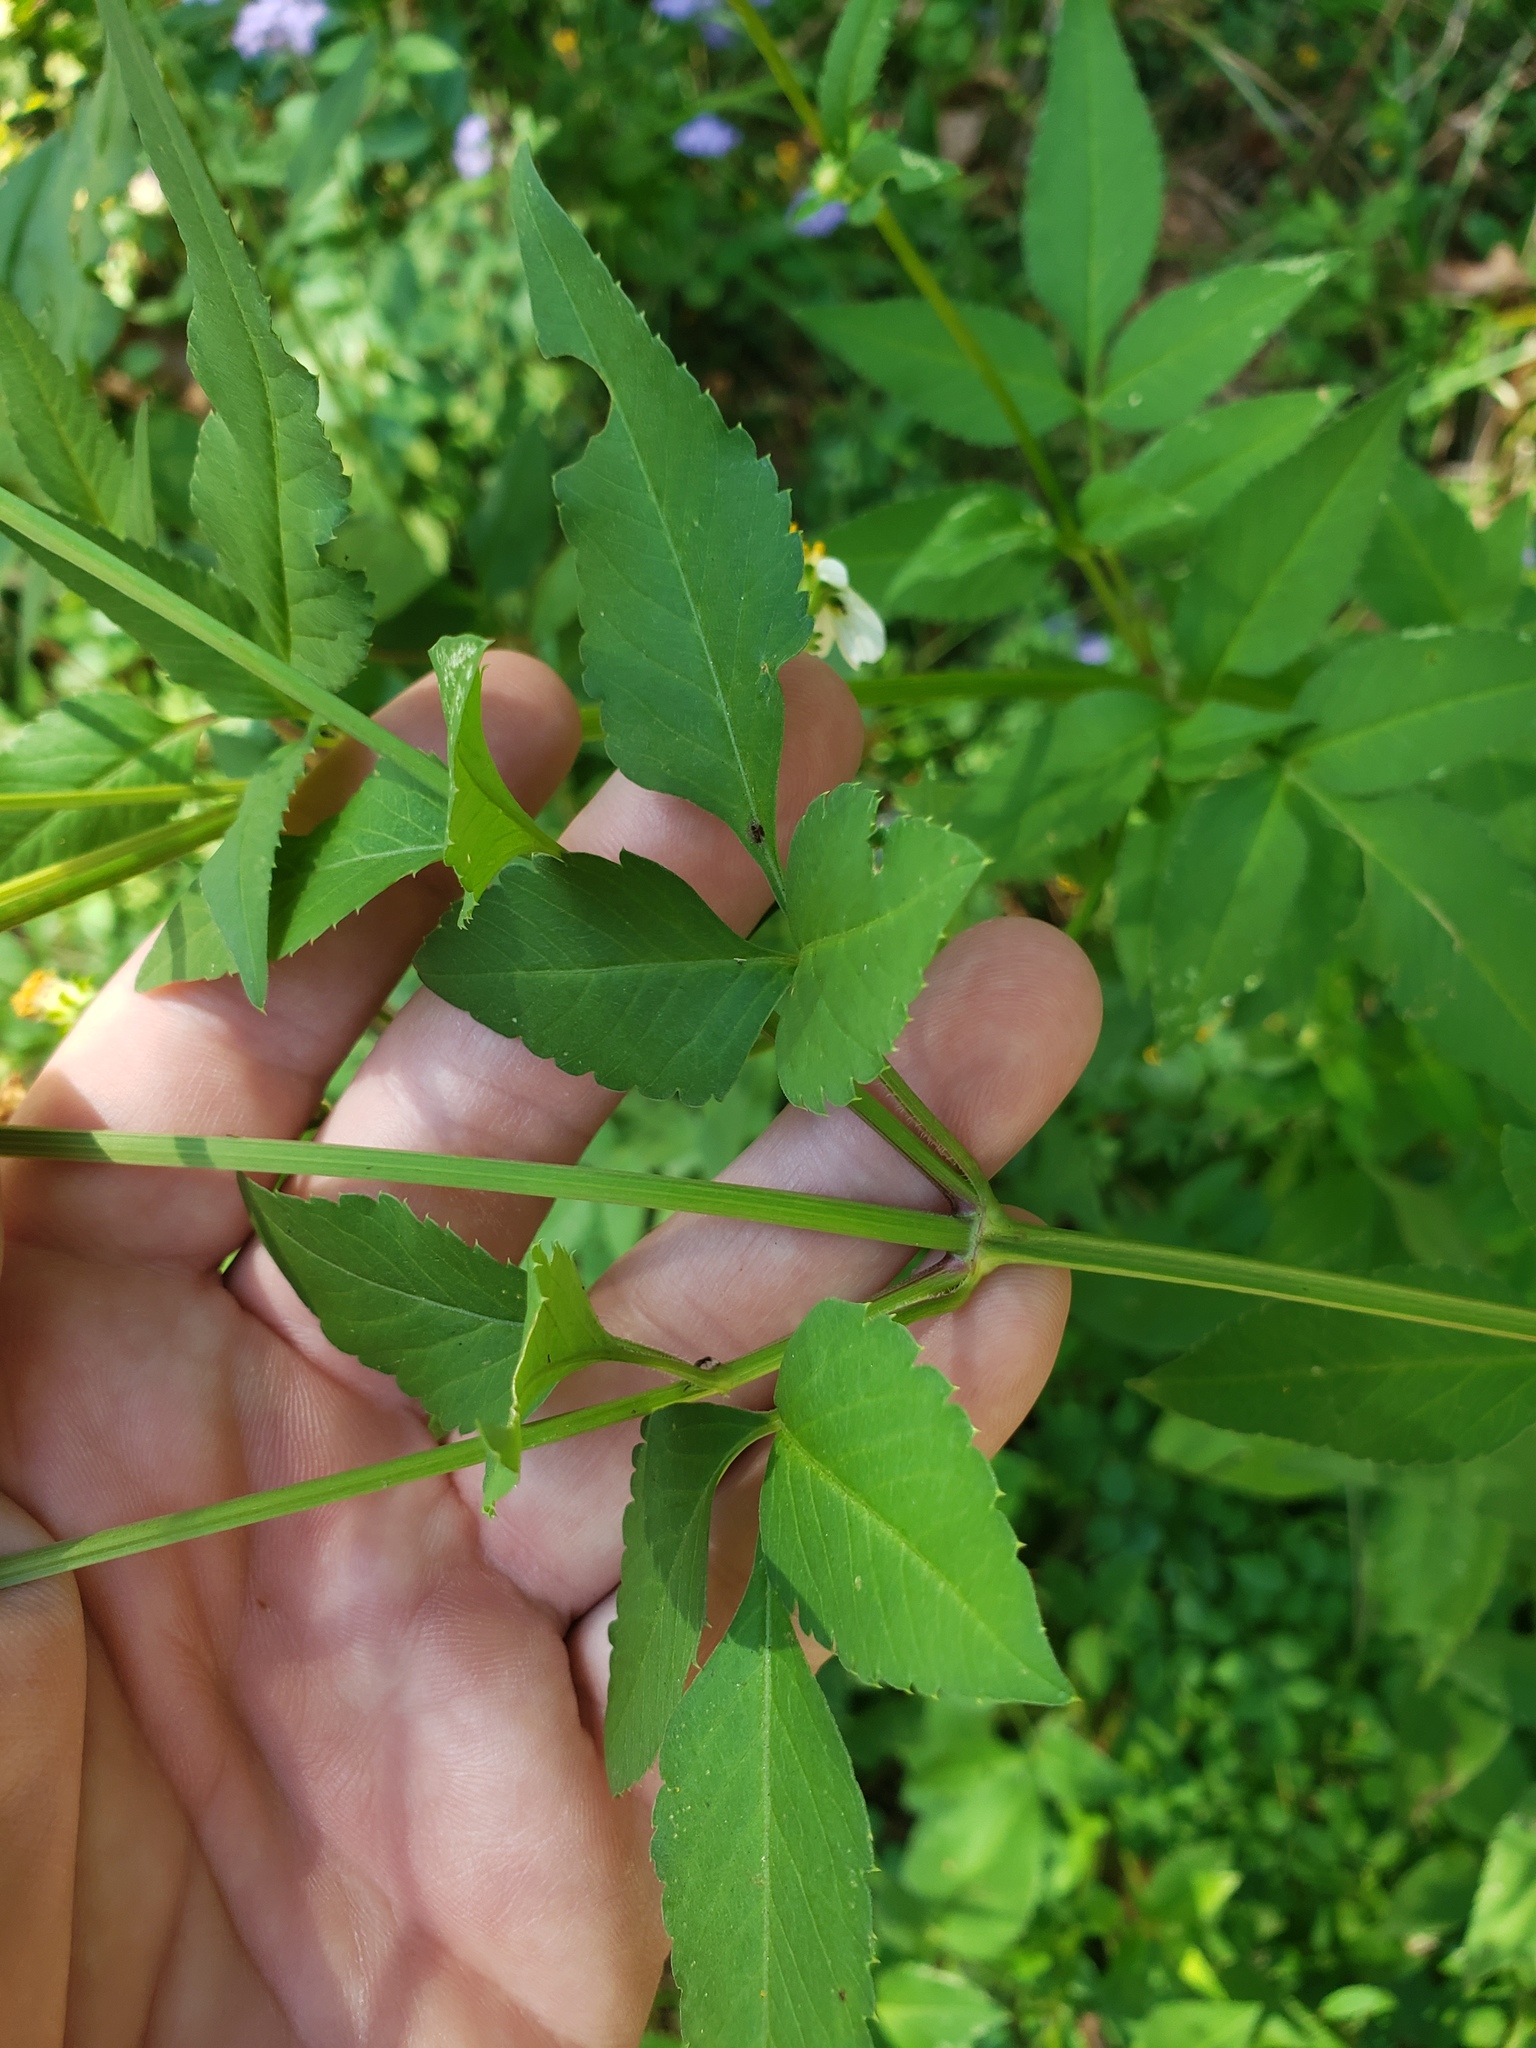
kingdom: Plantae
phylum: Tracheophyta
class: Magnoliopsida
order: Asterales
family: Asteraceae
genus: Bidens
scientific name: Bidens alba
